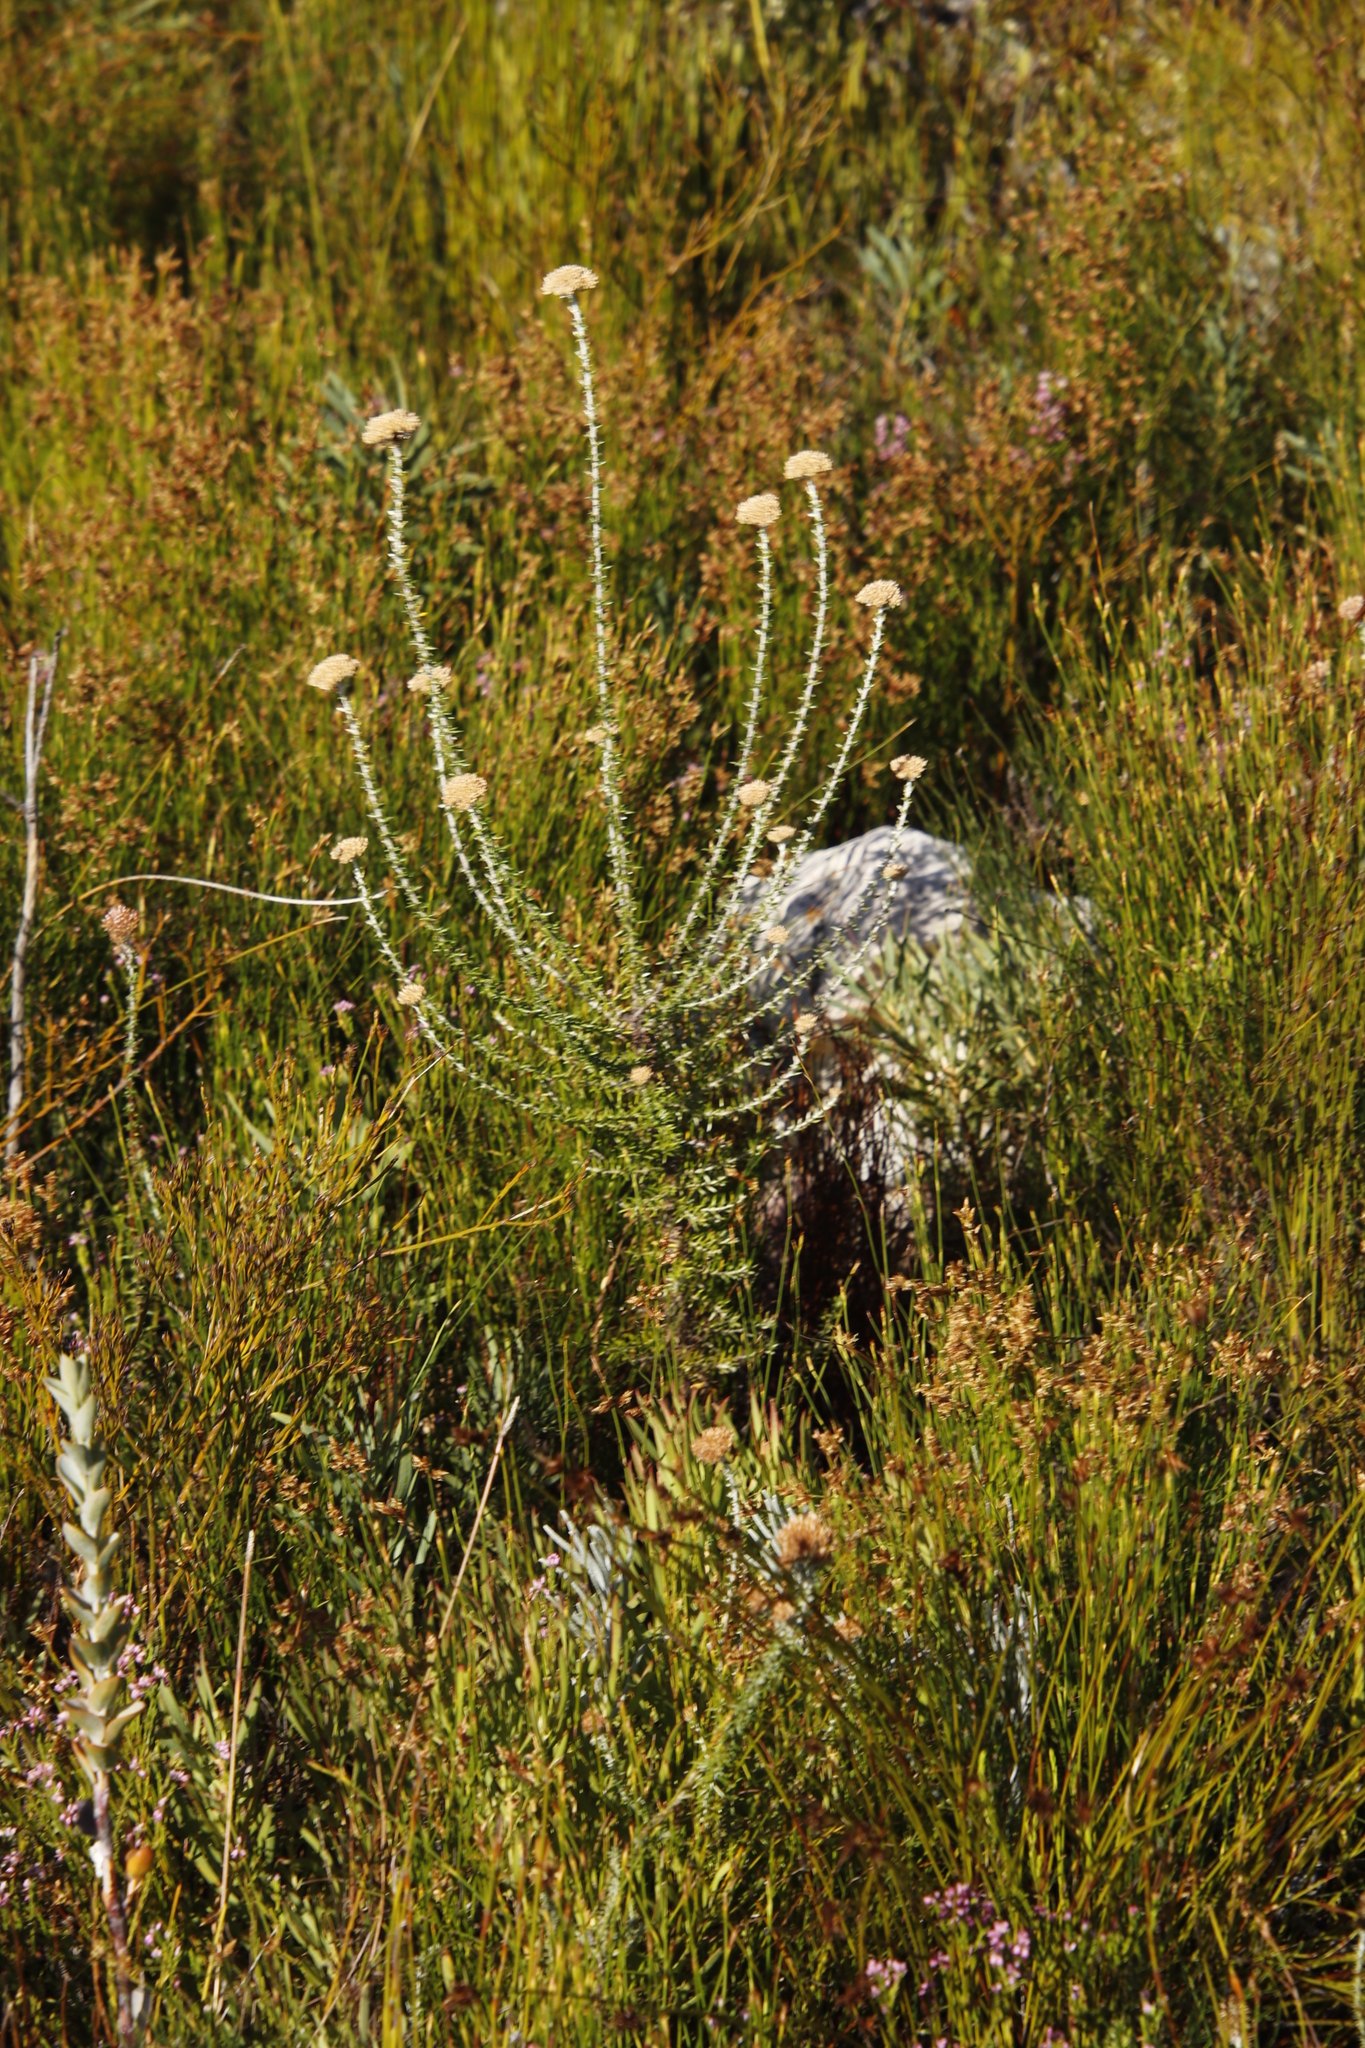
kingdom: Plantae
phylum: Tracheophyta
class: Magnoliopsida
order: Asterales
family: Asteraceae
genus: Metalasia
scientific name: Metalasia dregeana
